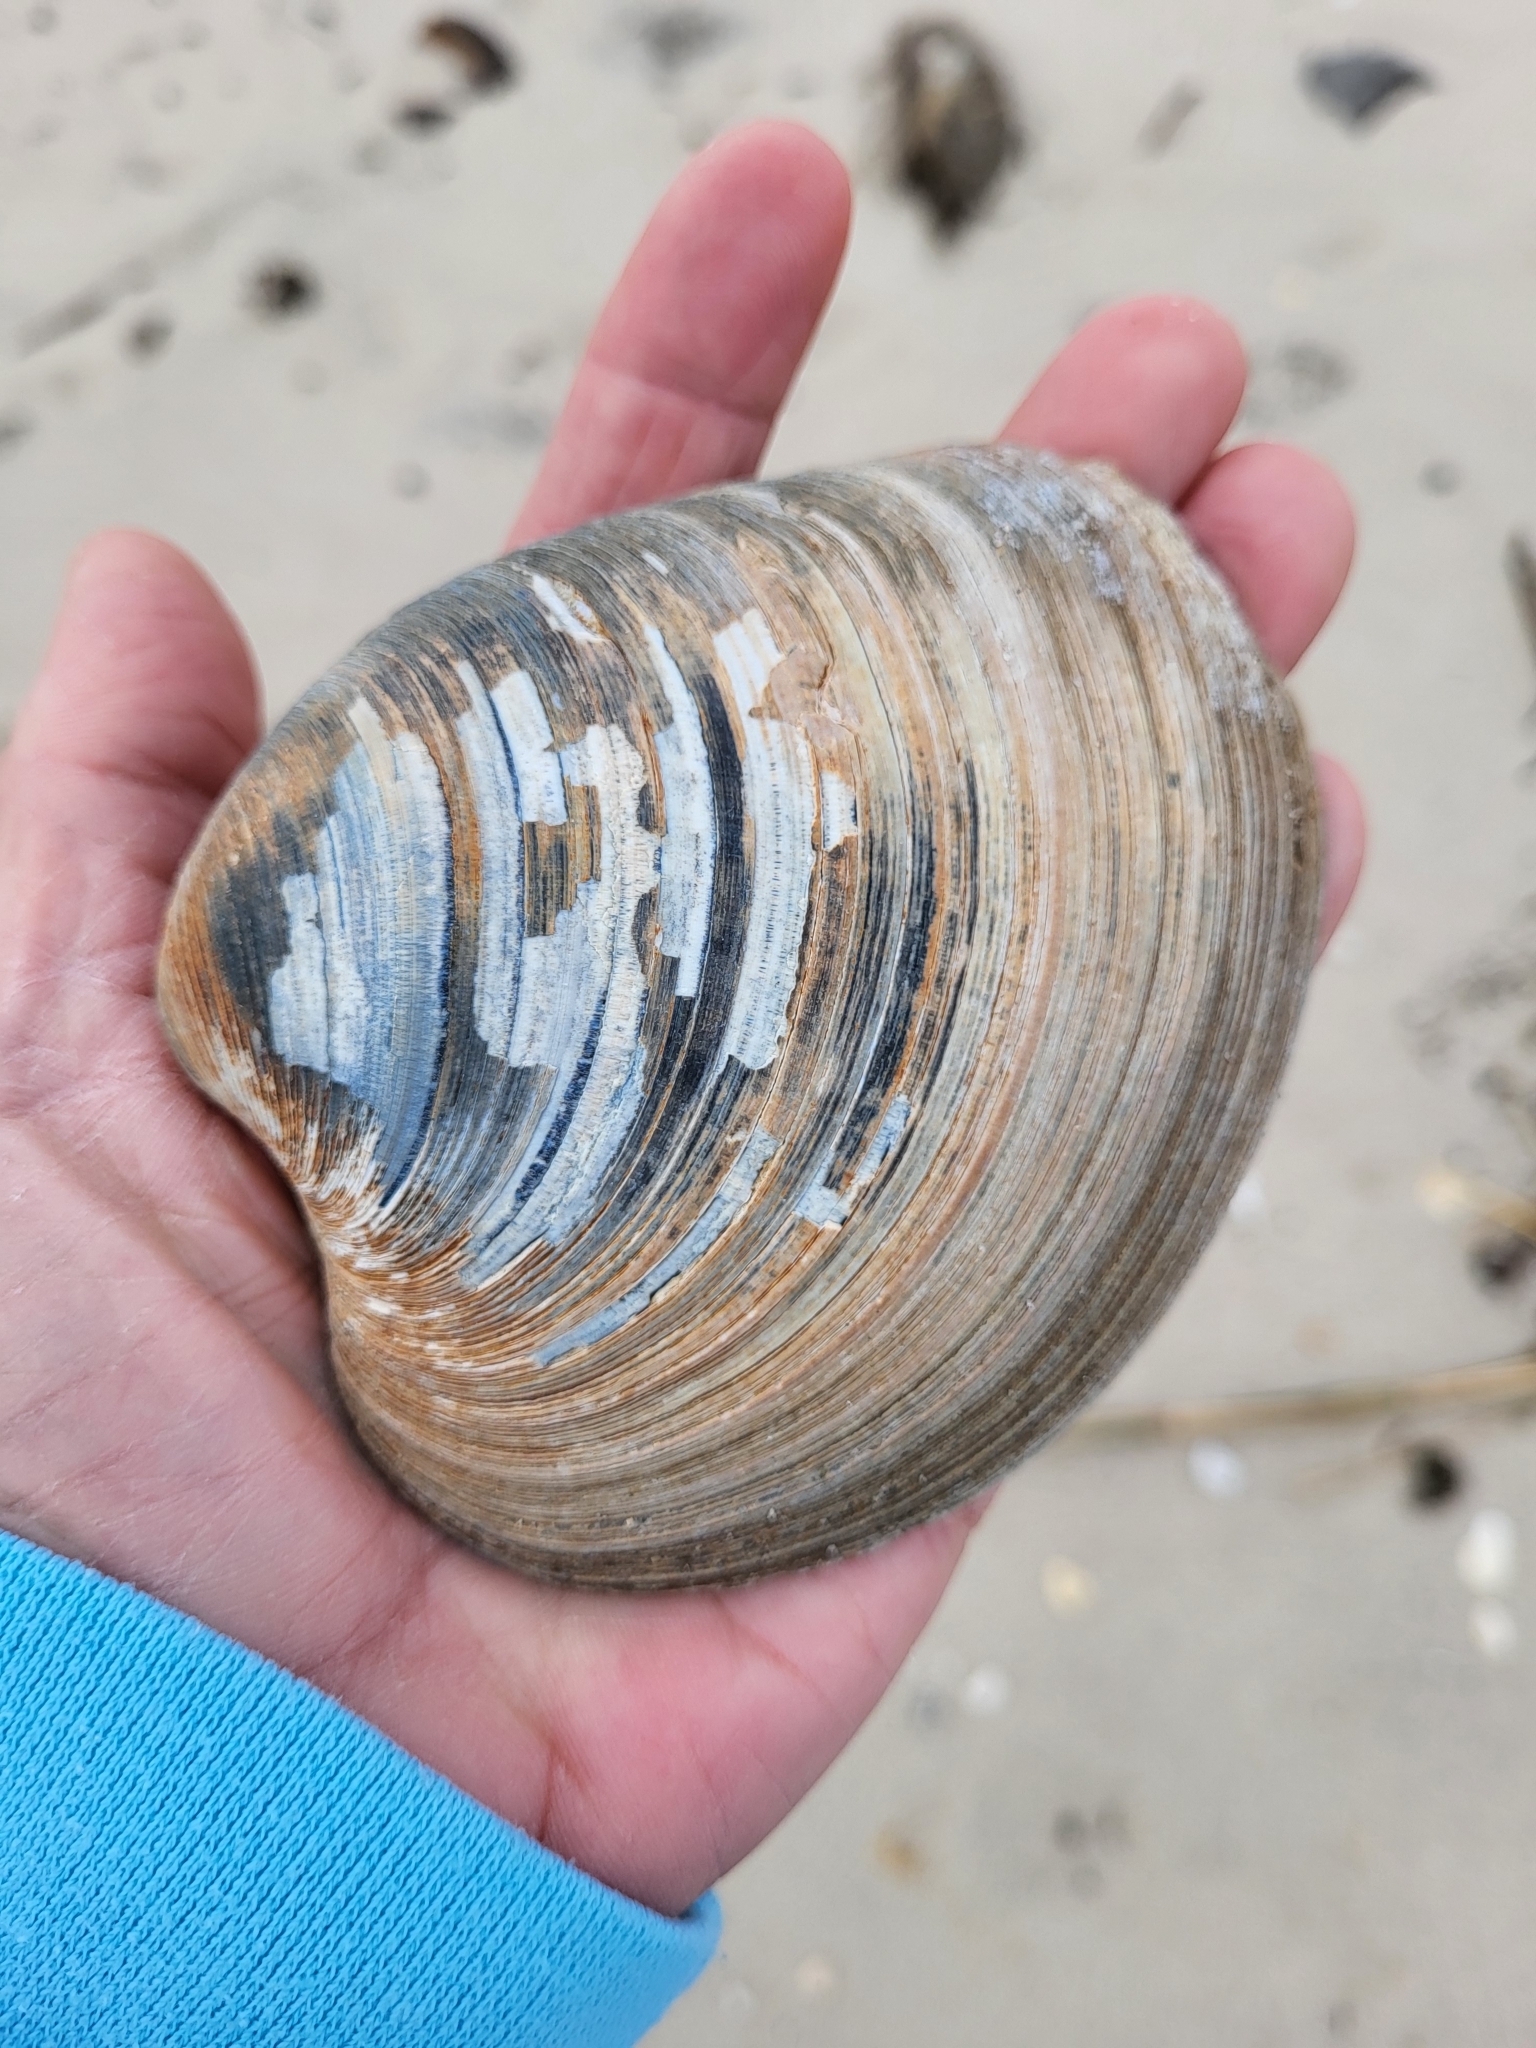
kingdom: Animalia
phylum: Mollusca
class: Bivalvia
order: Venerida
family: Veneridae
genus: Mercenaria
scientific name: Mercenaria mercenaria
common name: American hard-shelled clam
